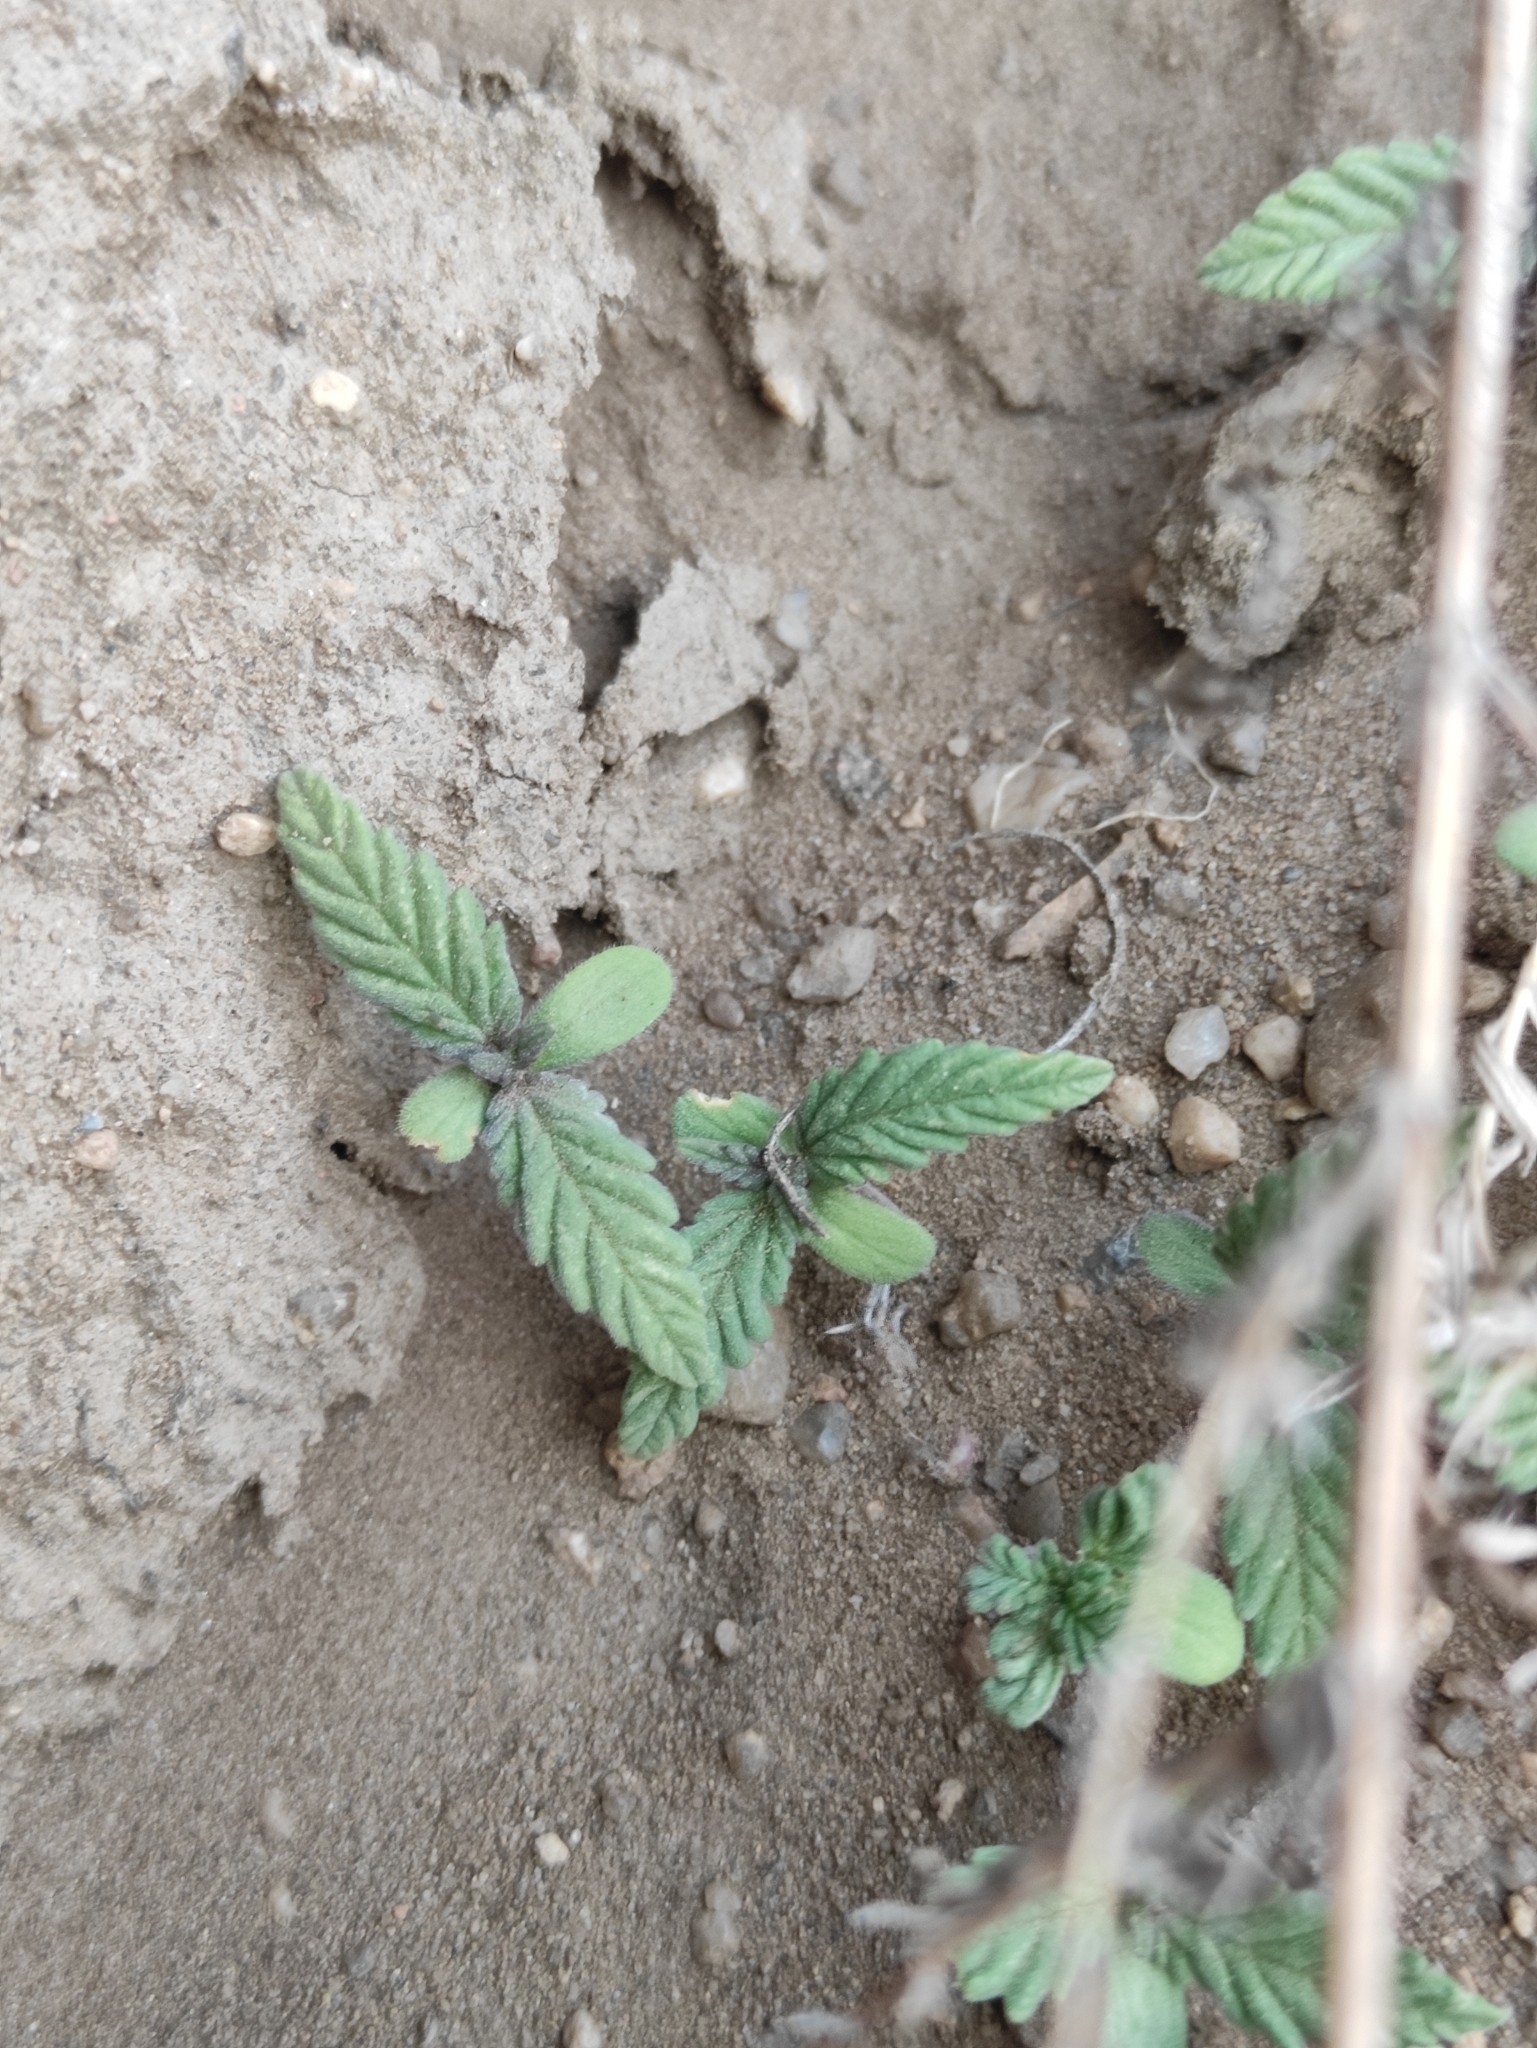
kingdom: Plantae
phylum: Tracheophyta
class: Magnoliopsida
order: Rosales
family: Cannabaceae
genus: Cannabis
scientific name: Cannabis sativa
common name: Hemp
